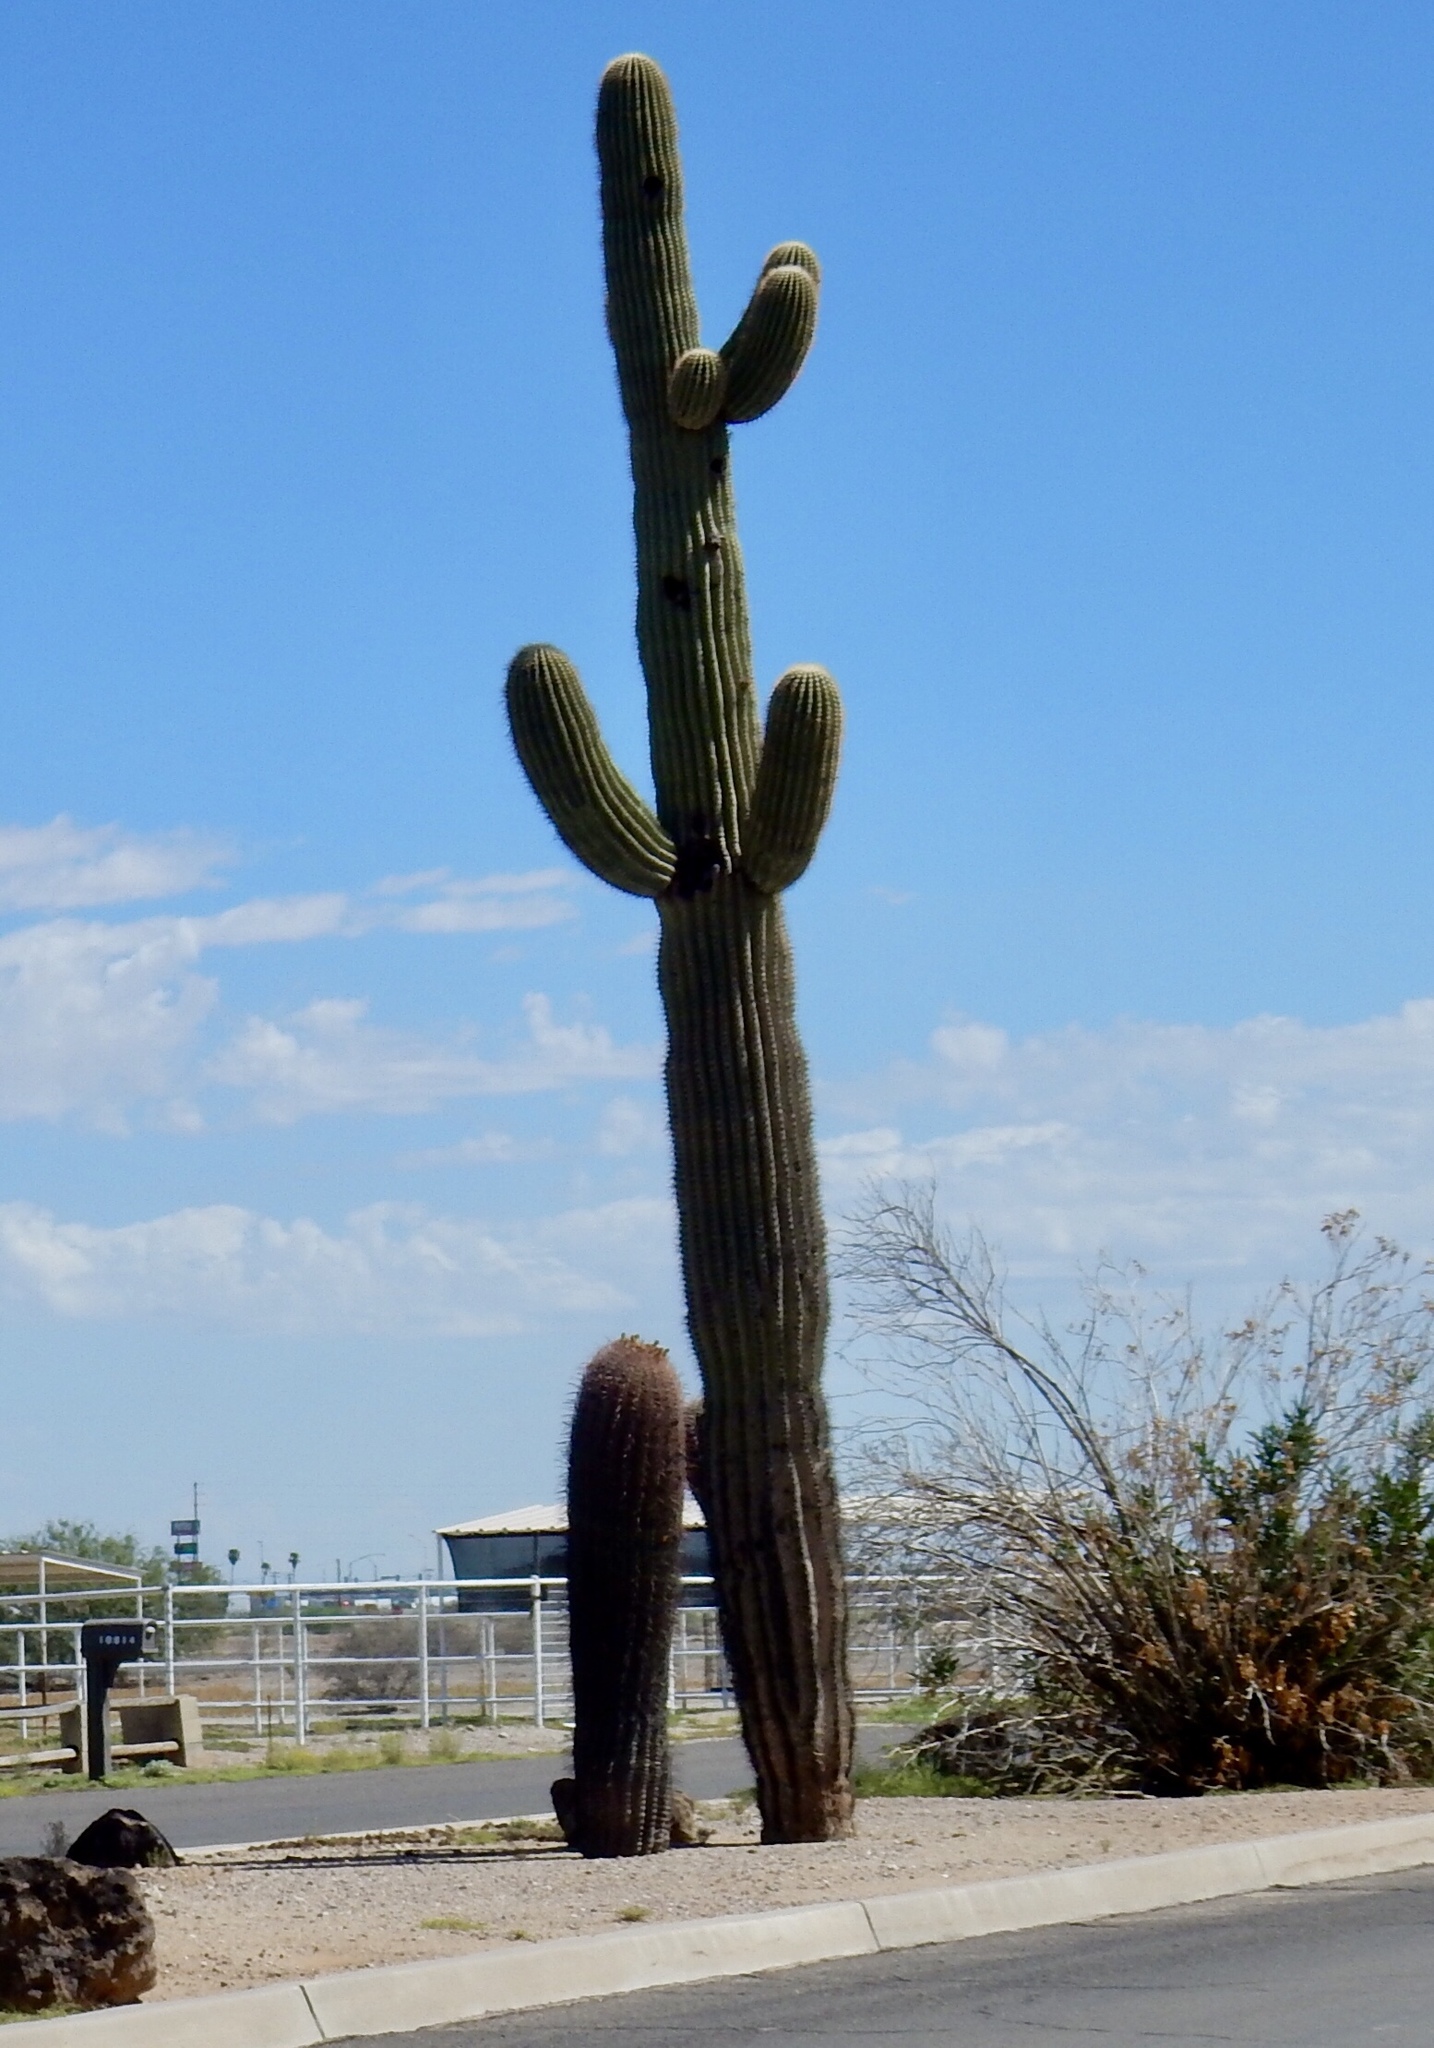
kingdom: Plantae
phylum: Tracheophyta
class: Magnoliopsida
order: Caryophyllales
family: Cactaceae
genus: Carnegiea
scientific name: Carnegiea gigantea
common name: Saguaro
